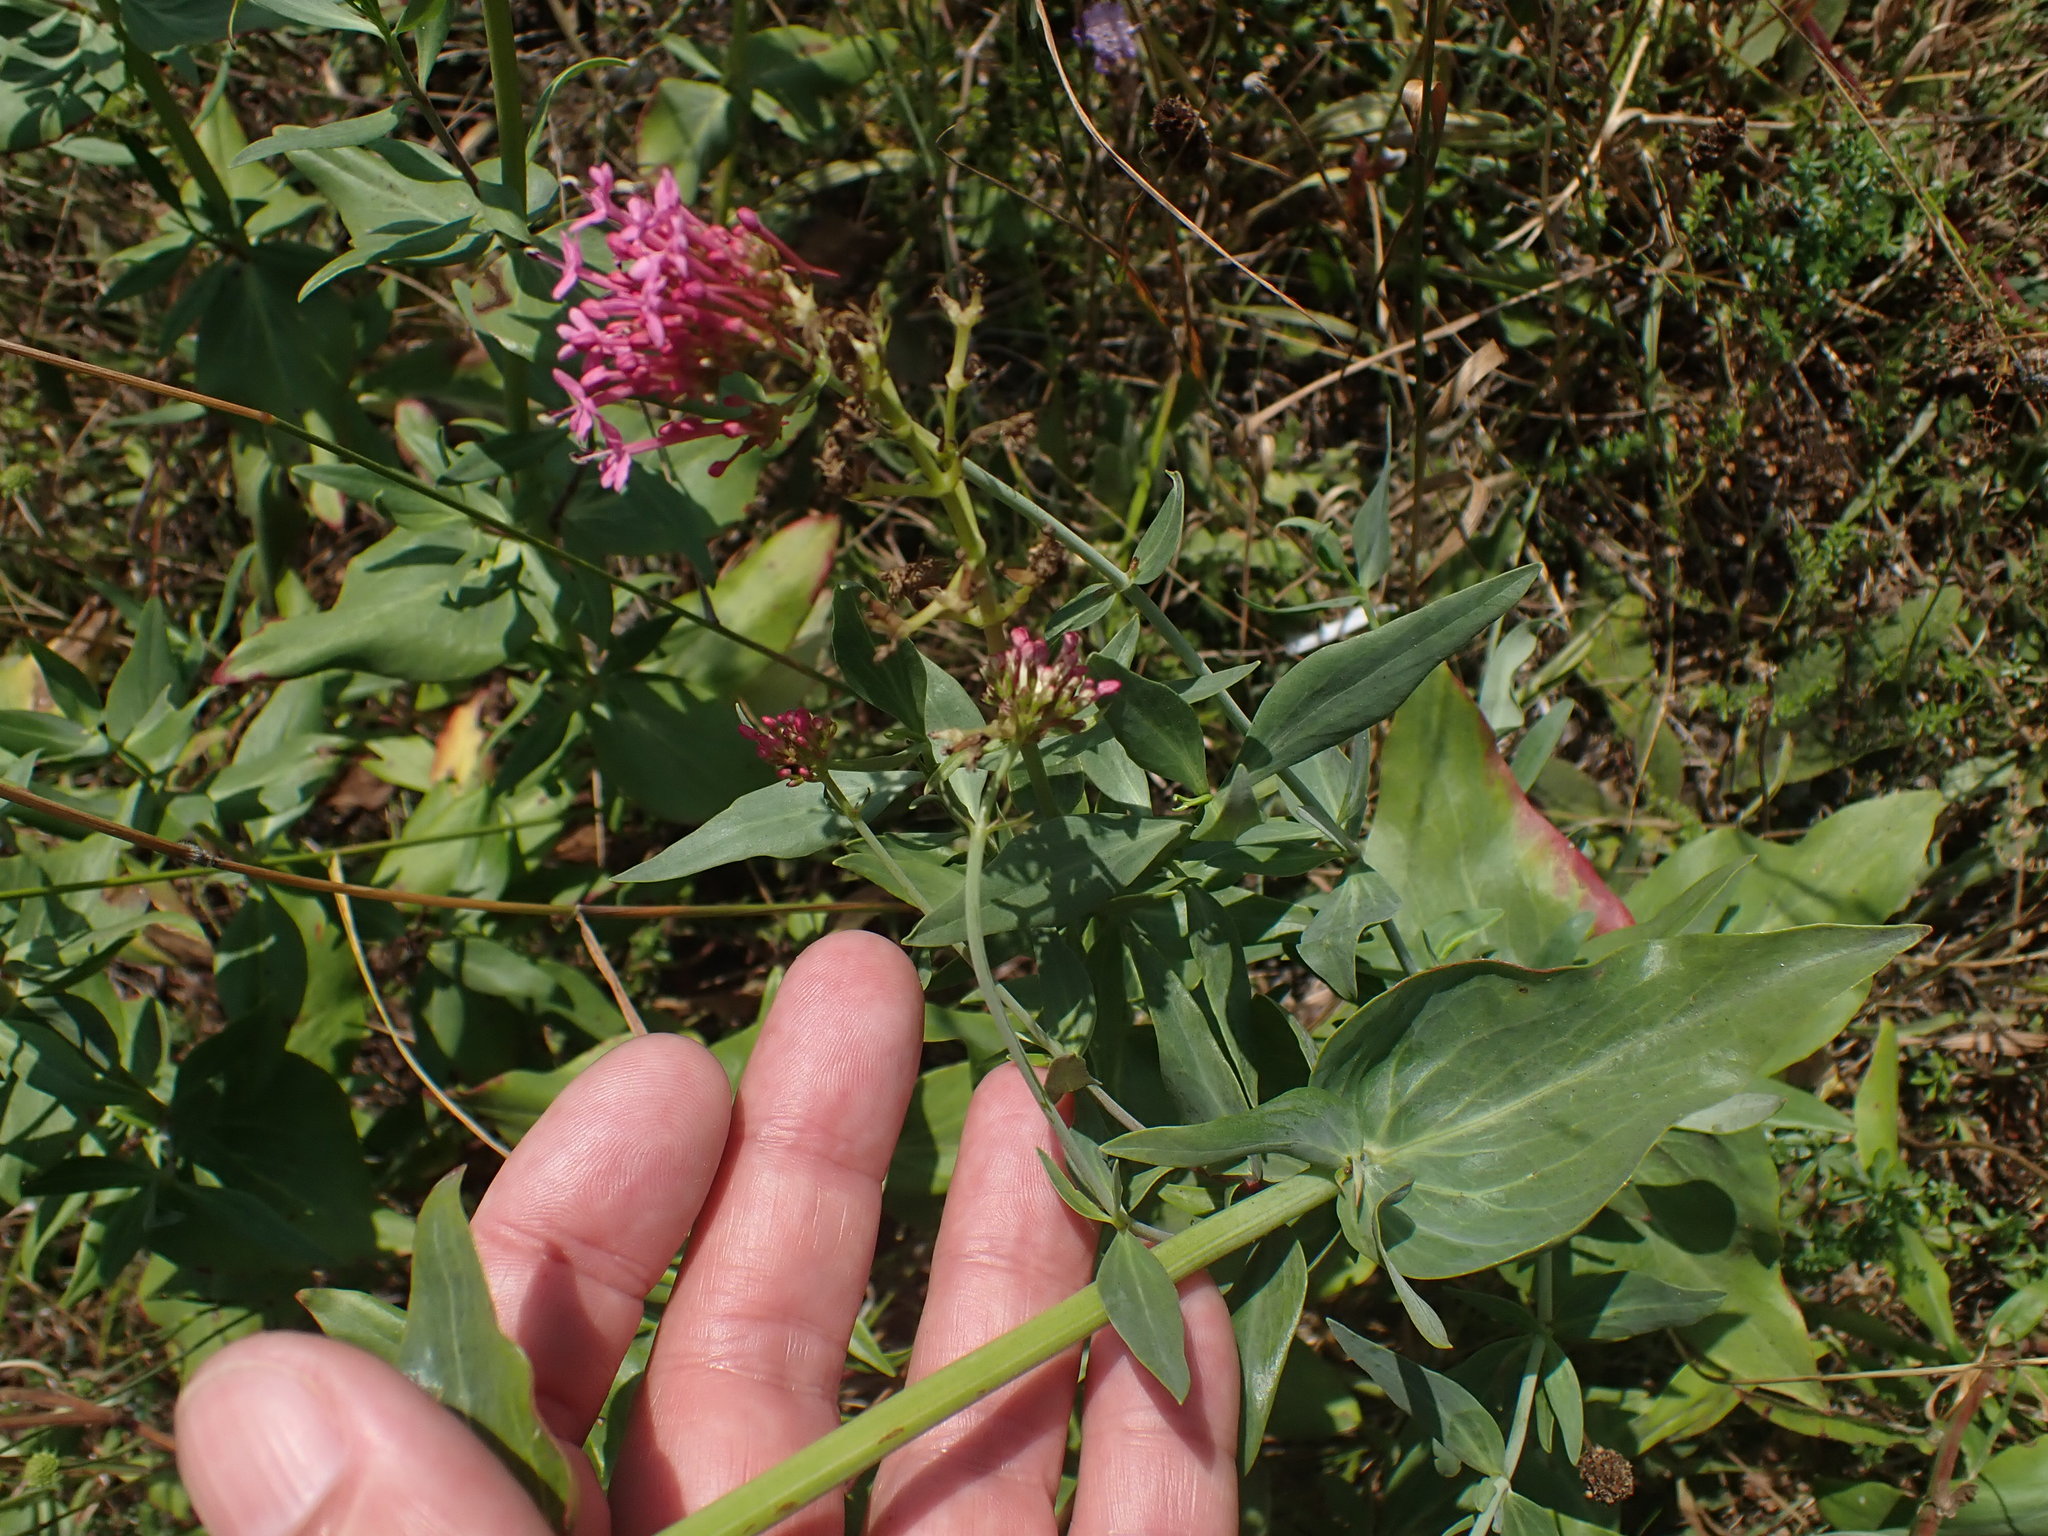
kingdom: Plantae
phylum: Tracheophyta
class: Magnoliopsida
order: Dipsacales
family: Caprifoliaceae
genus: Centranthus
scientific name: Centranthus ruber
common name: Red valerian
